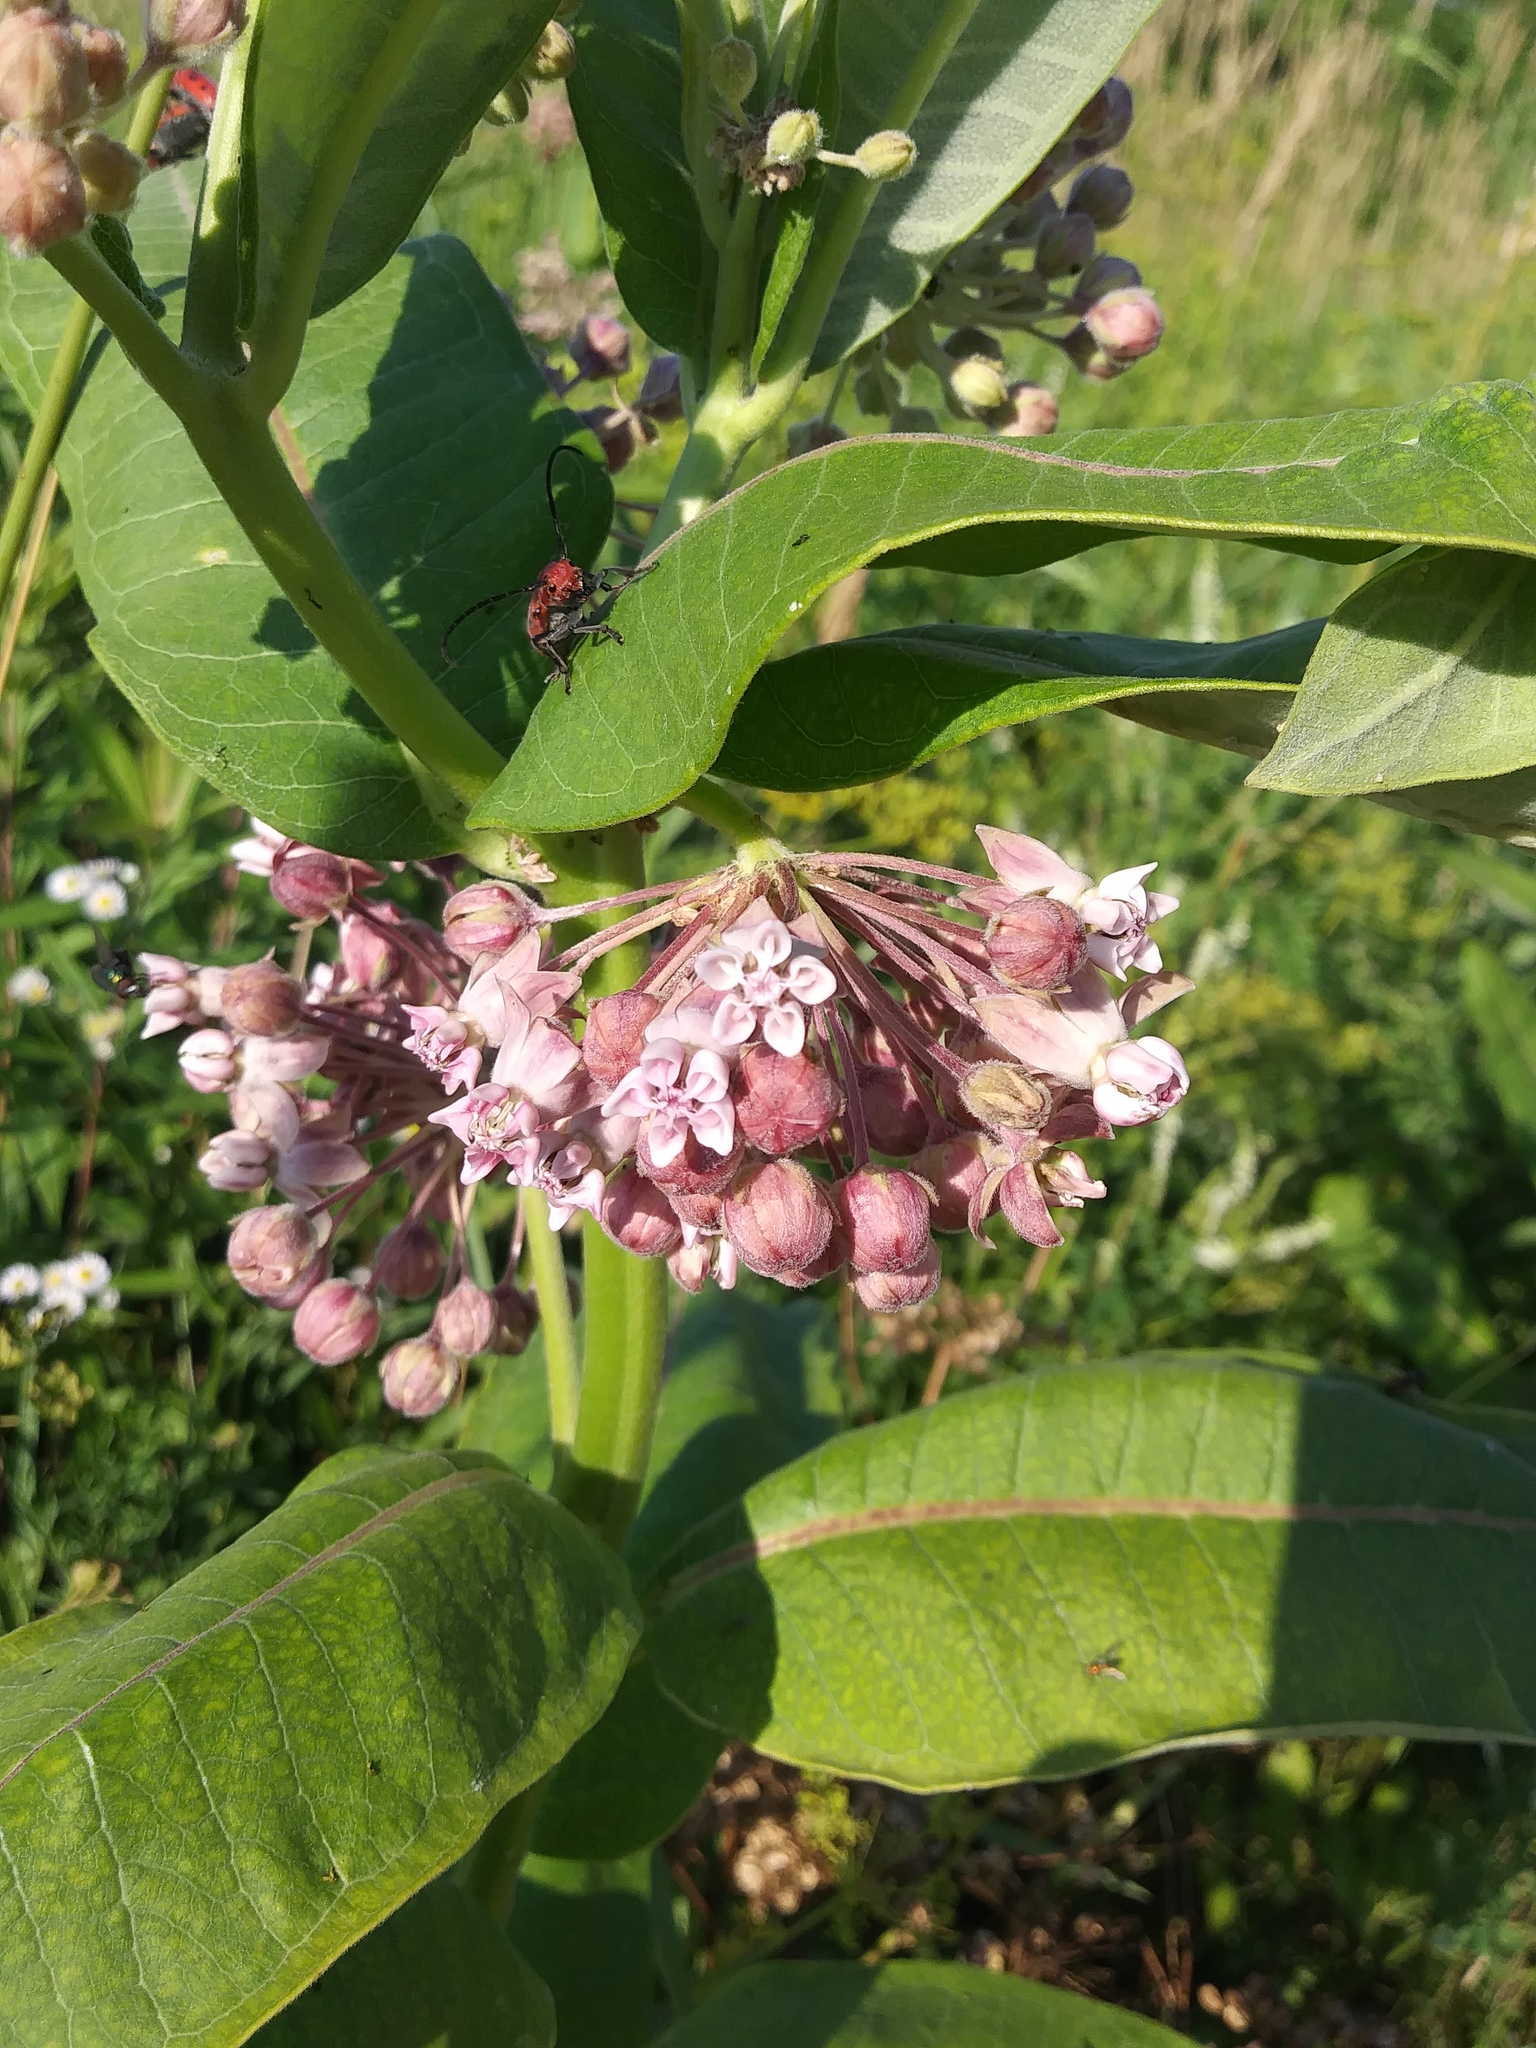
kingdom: Plantae
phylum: Tracheophyta
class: Magnoliopsida
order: Gentianales
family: Apocynaceae
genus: Asclepias
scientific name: Asclepias syriaca
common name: Common milkweed
